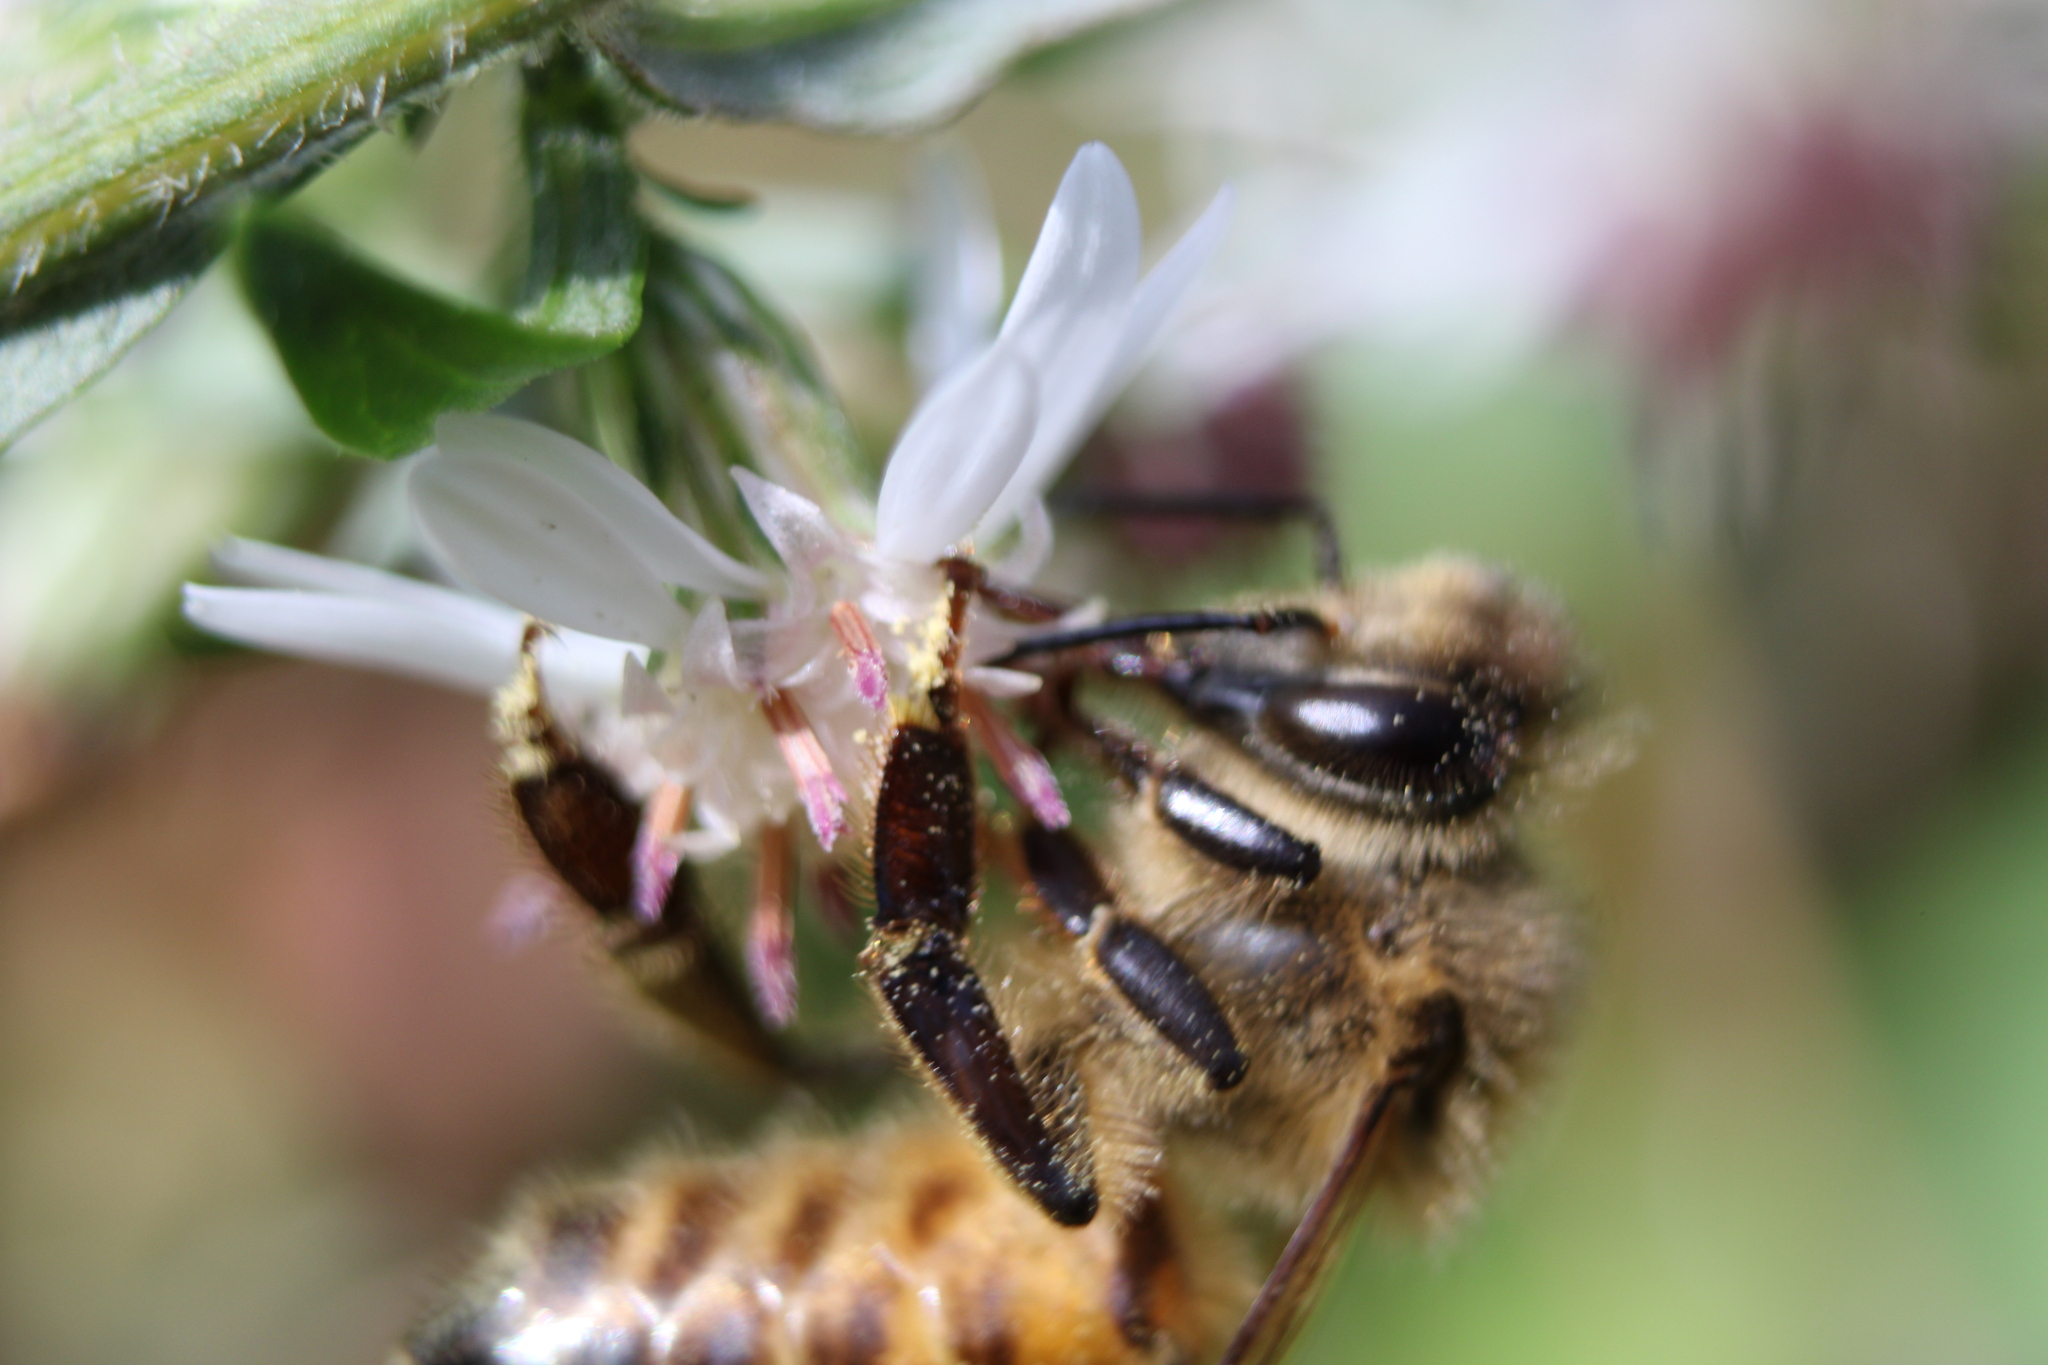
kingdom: Animalia
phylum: Arthropoda
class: Insecta
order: Hymenoptera
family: Apidae
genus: Apis
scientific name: Apis mellifera
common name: Honey bee
